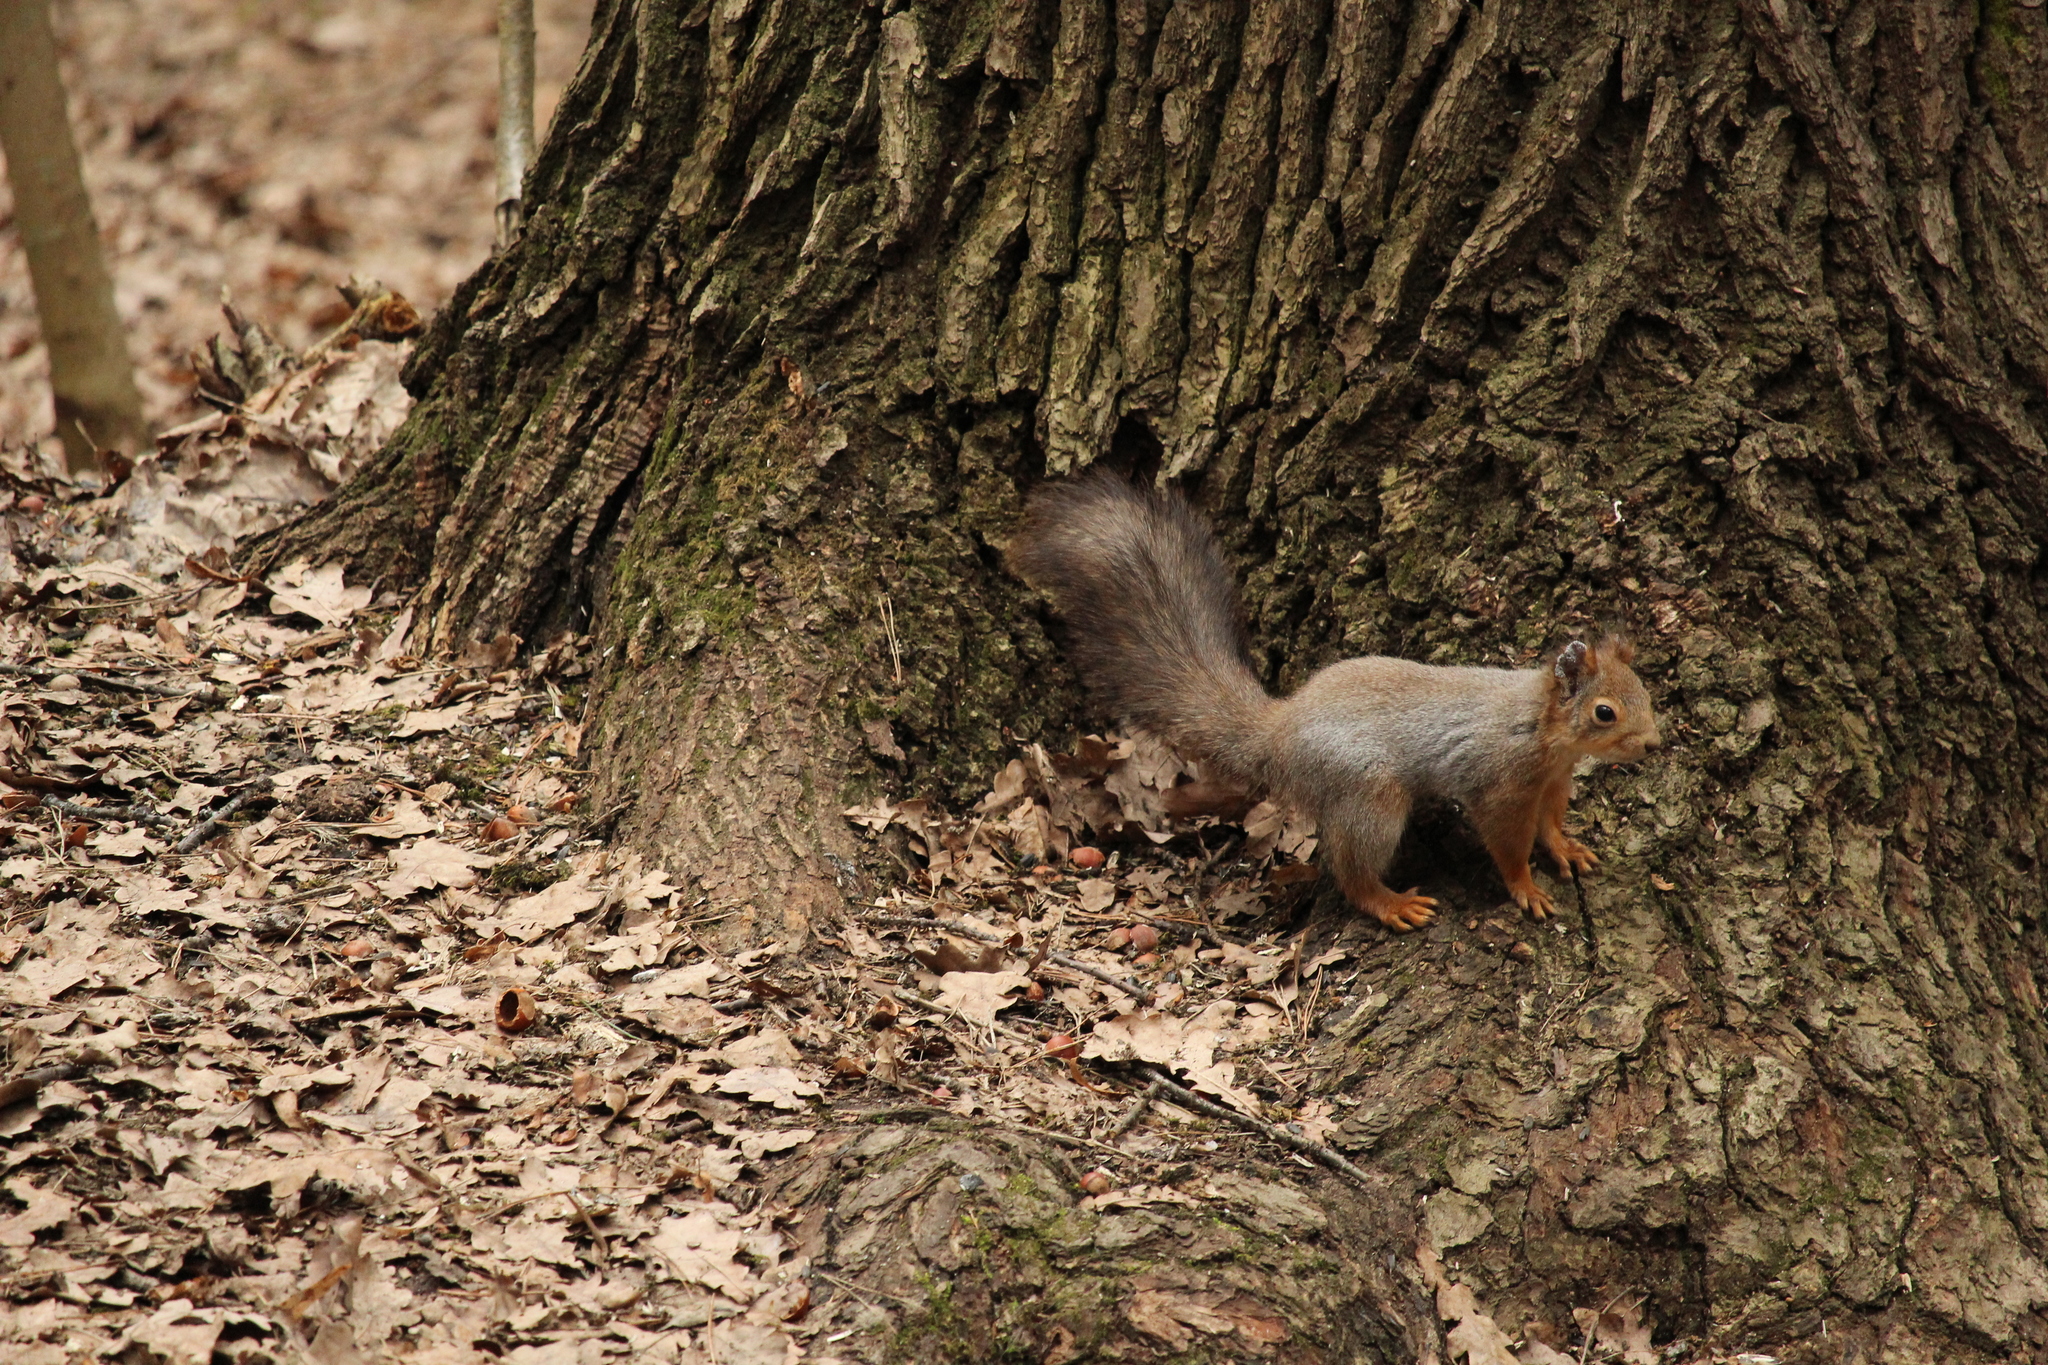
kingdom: Animalia
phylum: Chordata
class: Mammalia
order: Rodentia
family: Sciuridae
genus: Sciurus
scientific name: Sciurus vulgaris
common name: Eurasian red squirrel
